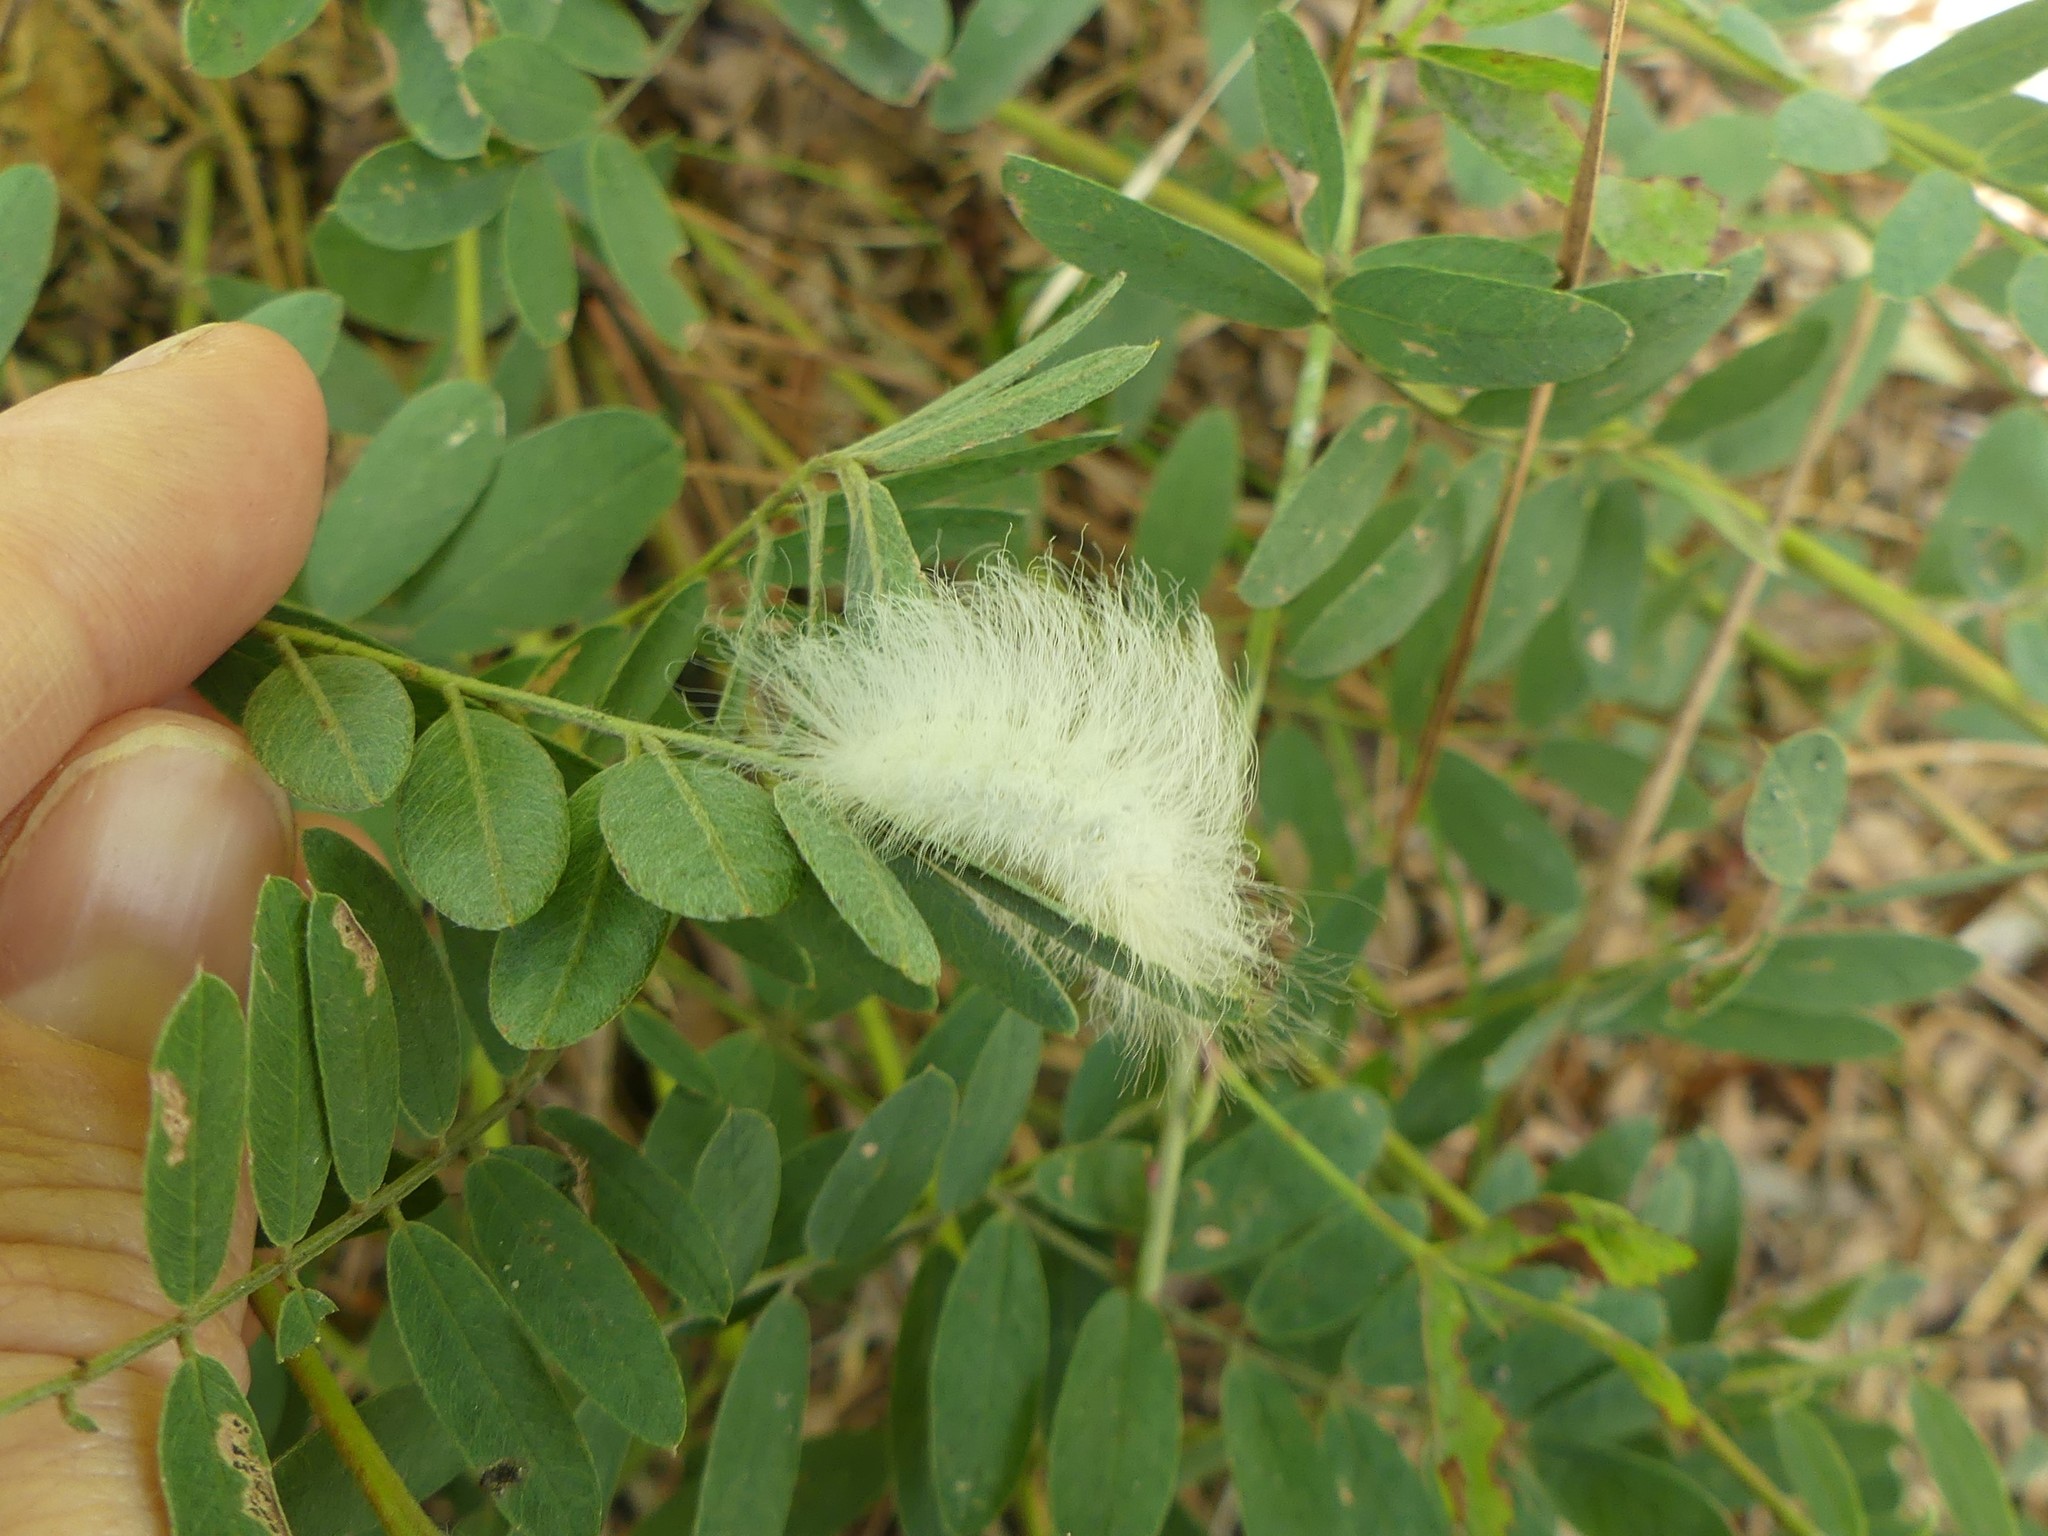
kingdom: Animalia
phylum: Arthropoda
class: Insecta
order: Lepidoptera
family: Megalopygidae
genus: Megalopyge
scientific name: Megalopyge crispata
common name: Black-waved flannel moth
